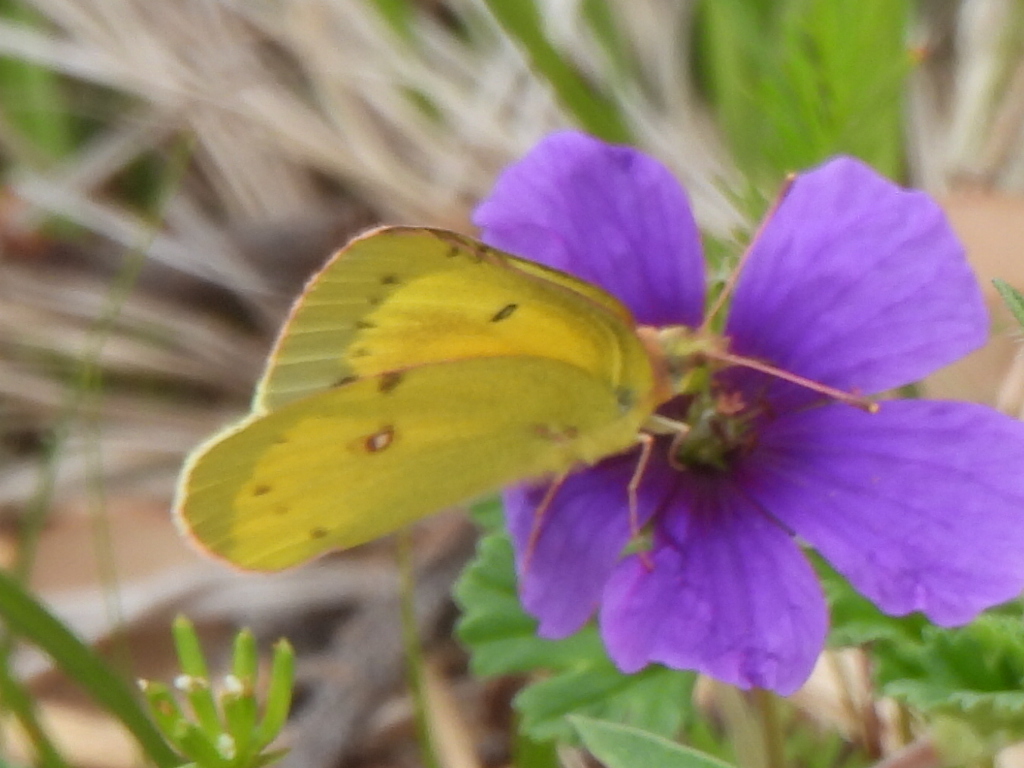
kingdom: Animalia
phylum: Arthropoda
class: Insecta
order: Lepidoptera
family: Pieridae
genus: Colias
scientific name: Colias eurytheme
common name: Alfalfa butterfly
